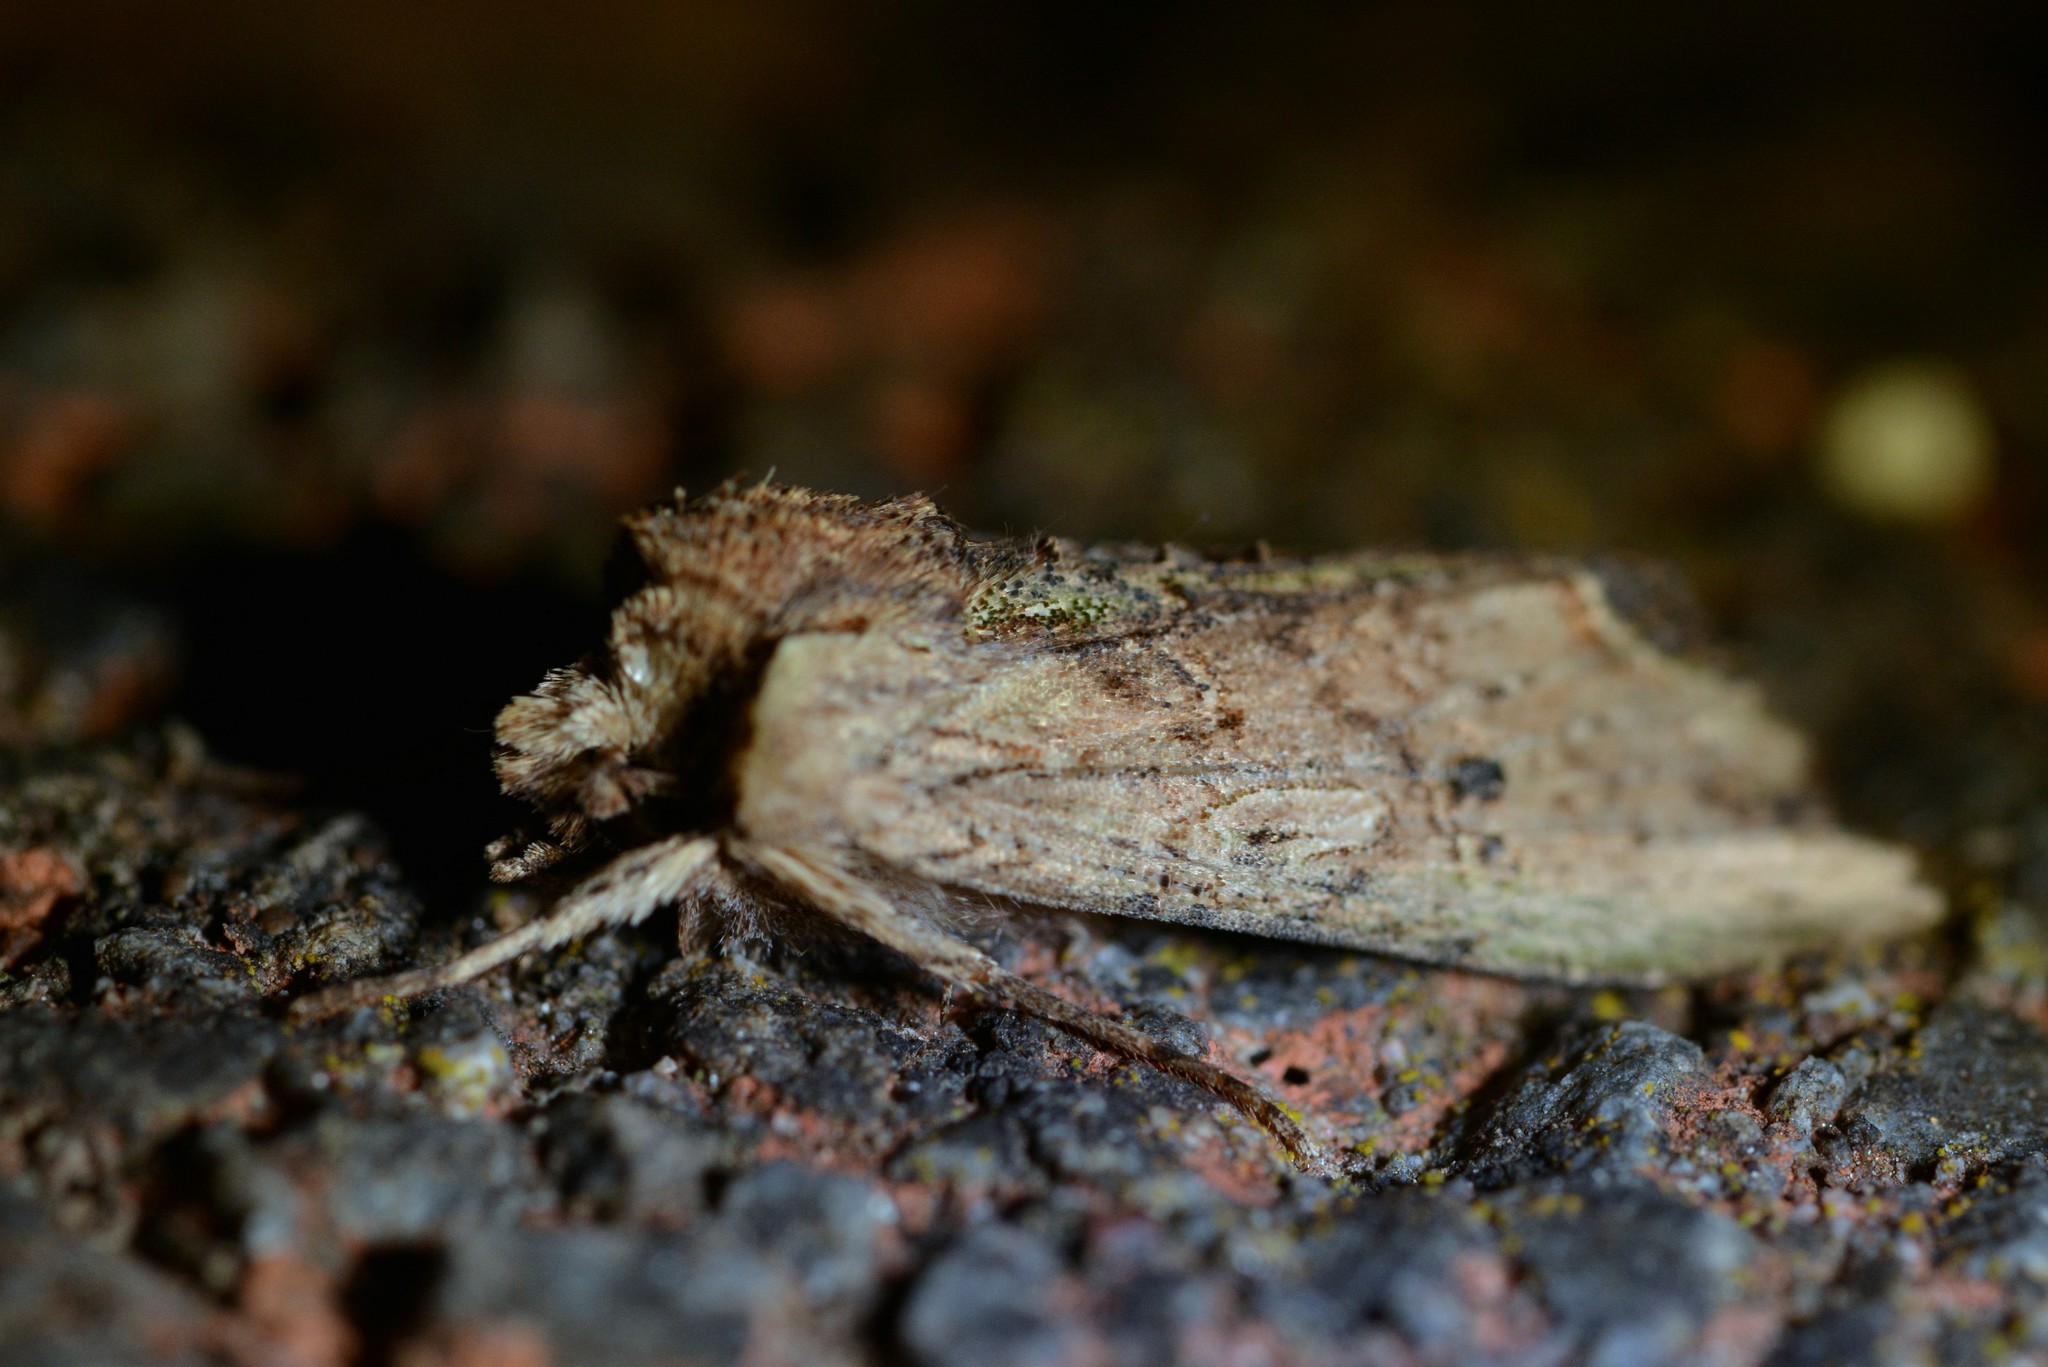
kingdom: Animalia
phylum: Arthropoda
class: Insecta
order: Lepidoptera
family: Noctuidae
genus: Meterana
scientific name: Meterana coeleno
